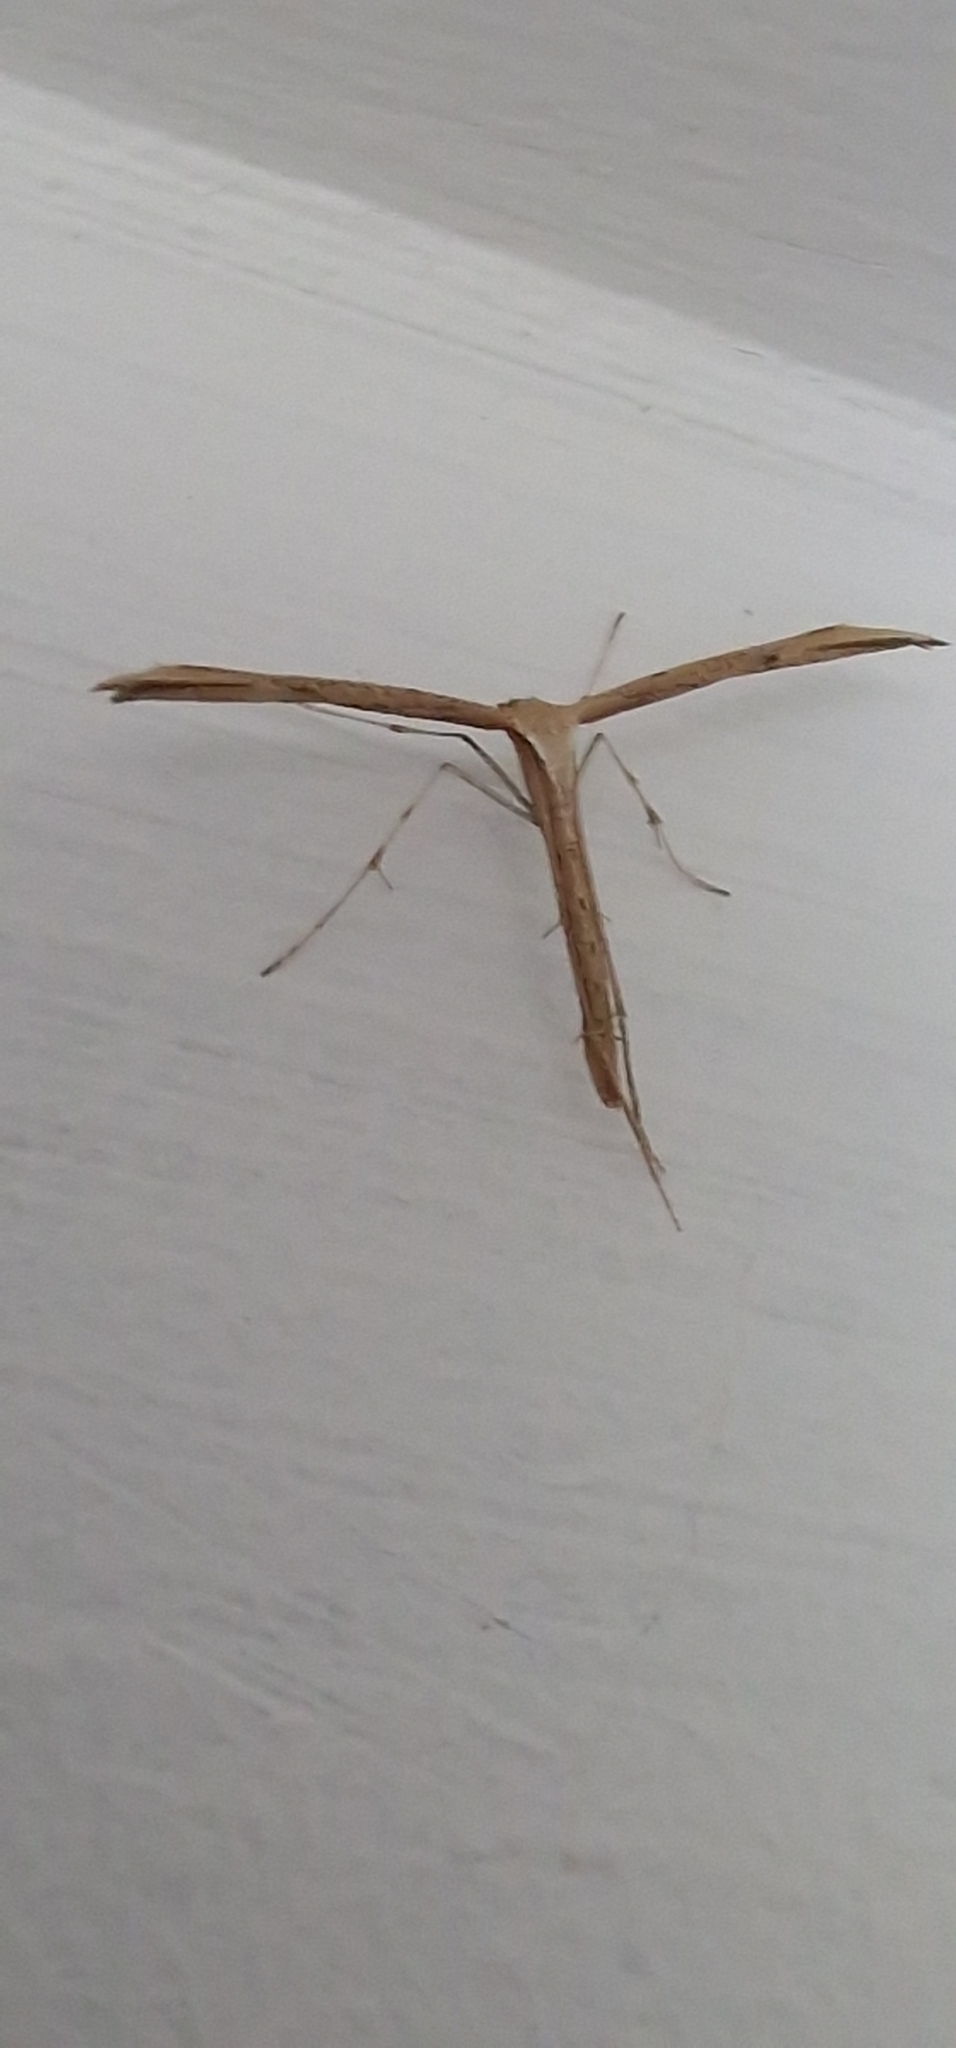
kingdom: Animalia
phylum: Arthropoda
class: Insecta
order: Lepidoptera
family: Pterophoridae
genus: Emmelina
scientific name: Emmelina monodactyla
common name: Common plume
